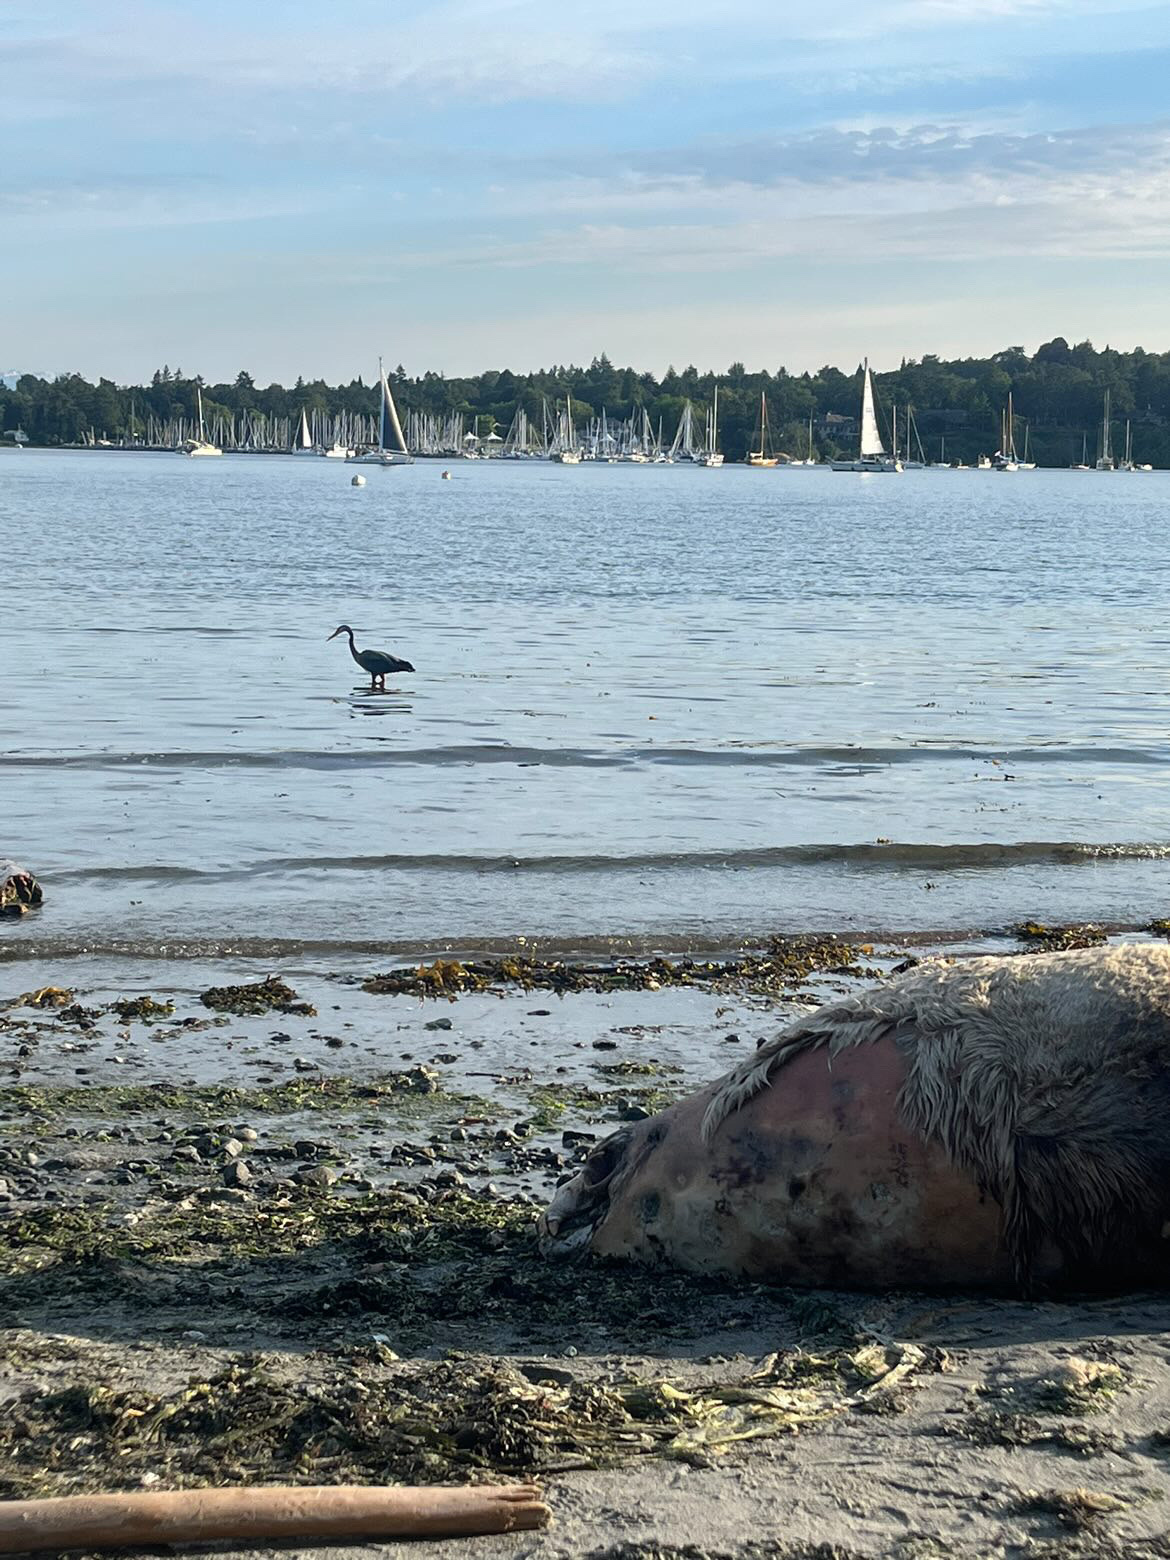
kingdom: Animalia
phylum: Chordata
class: Mammalia
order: Carnivora
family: Otariidae
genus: Eumetopias
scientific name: Eumetopias jubatus
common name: Steller sea lion
